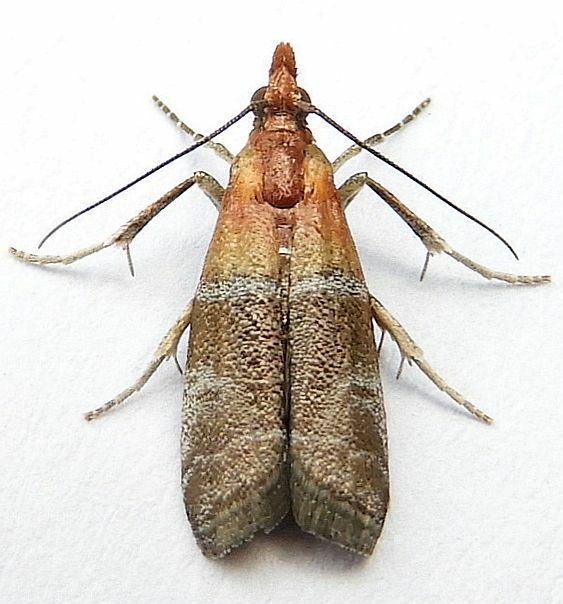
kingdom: Animalia
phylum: Arthropoda
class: Insecta
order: Lepidoptera
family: Pyralidae
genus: Moodna
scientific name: Moodna pallidostrinella
